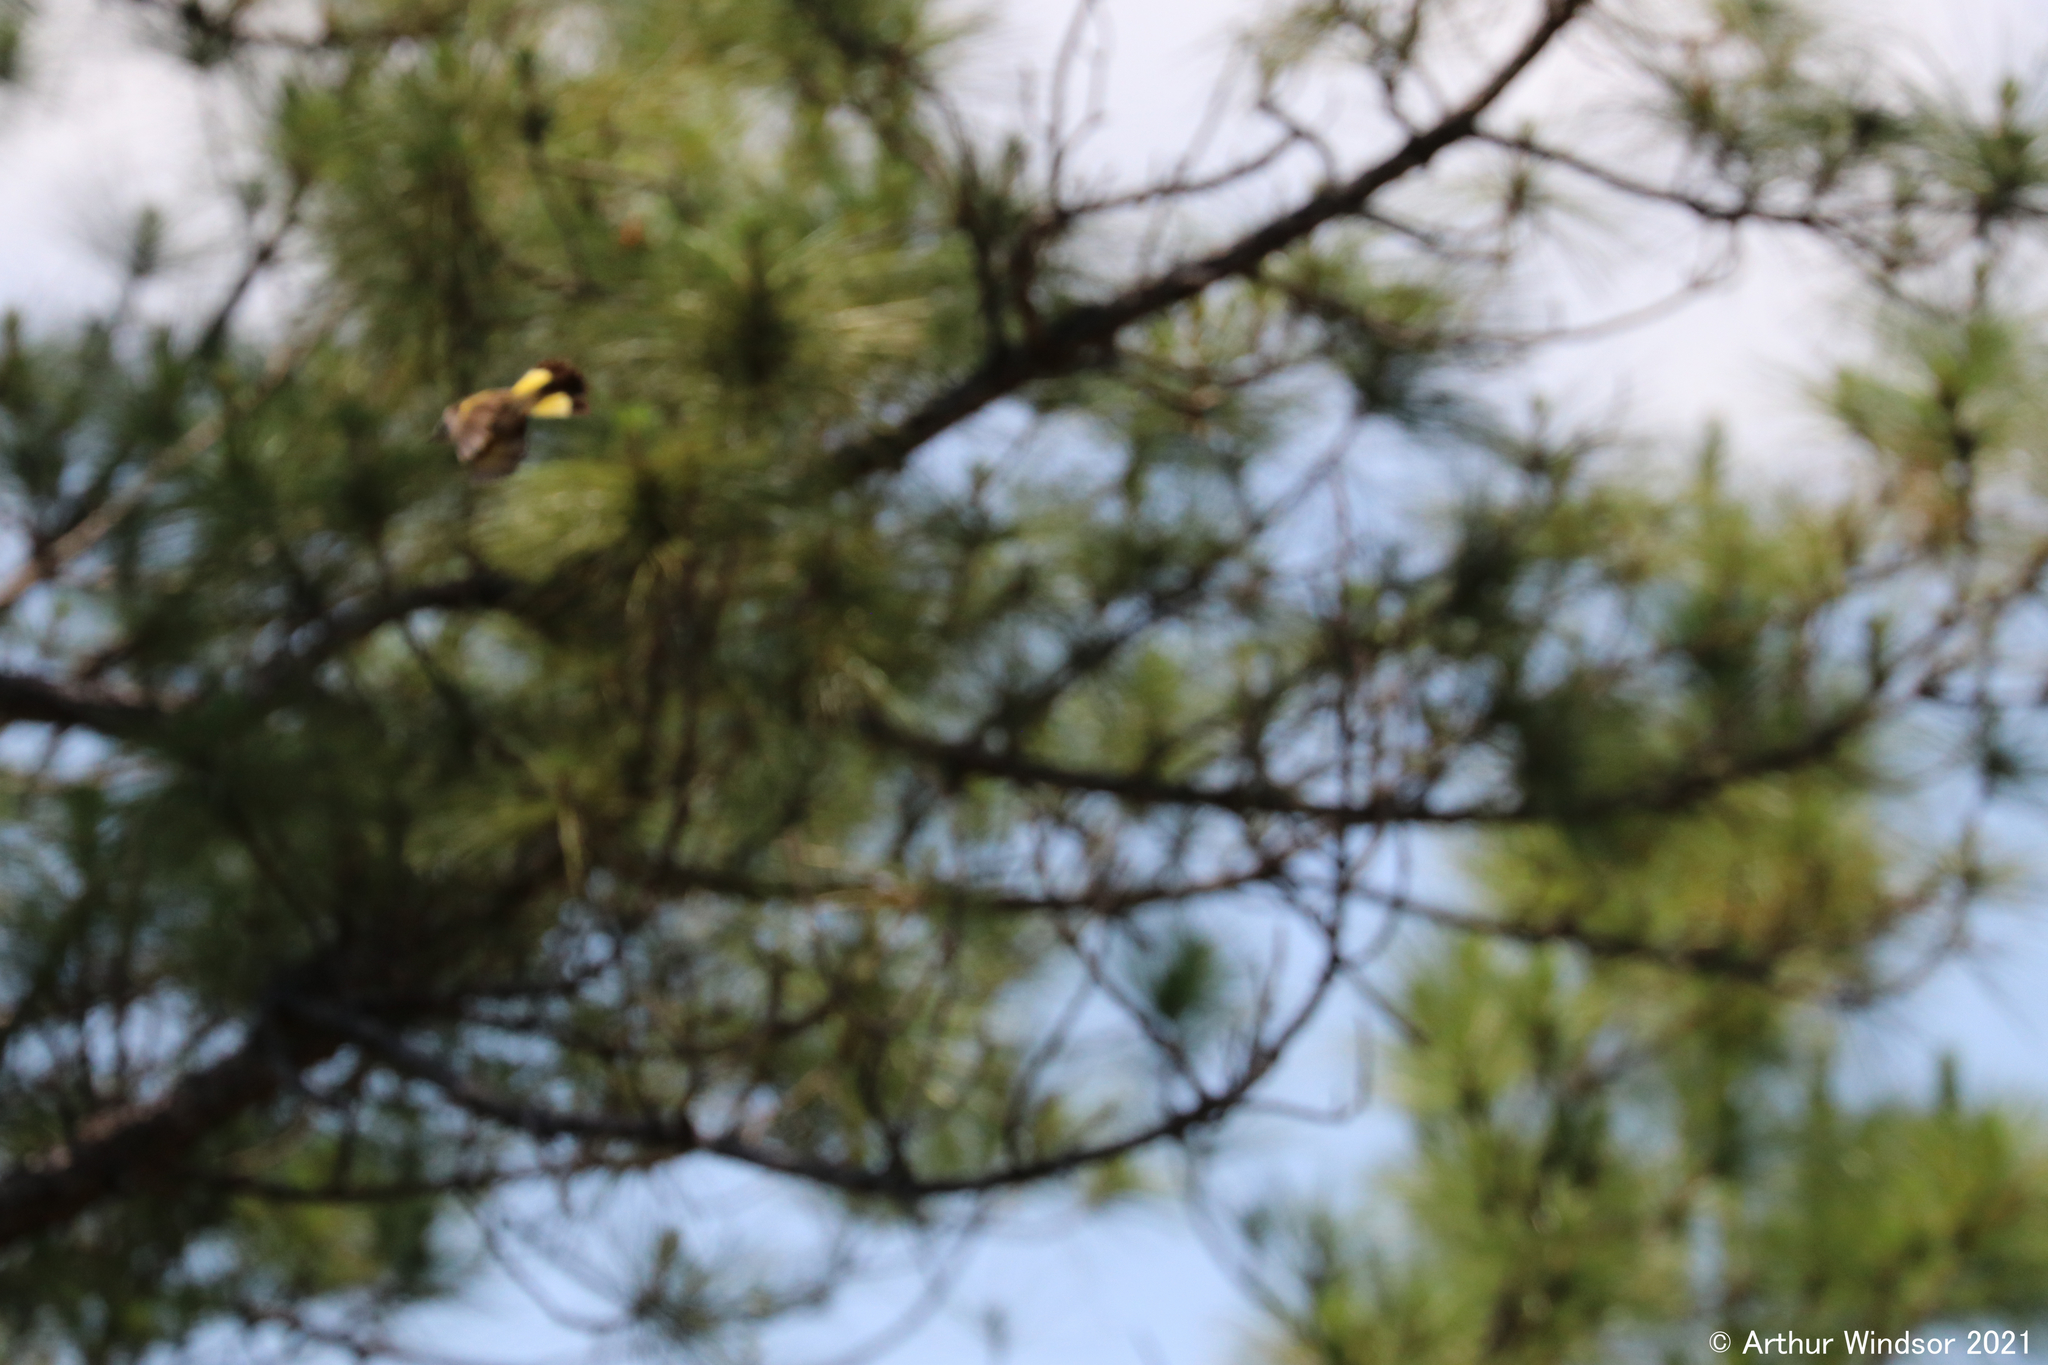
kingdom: Animalia
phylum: Chordata
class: Aves
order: Passeriformes
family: Parulidae
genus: Setophaga
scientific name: Setophaga ruticilla
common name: American redstart
